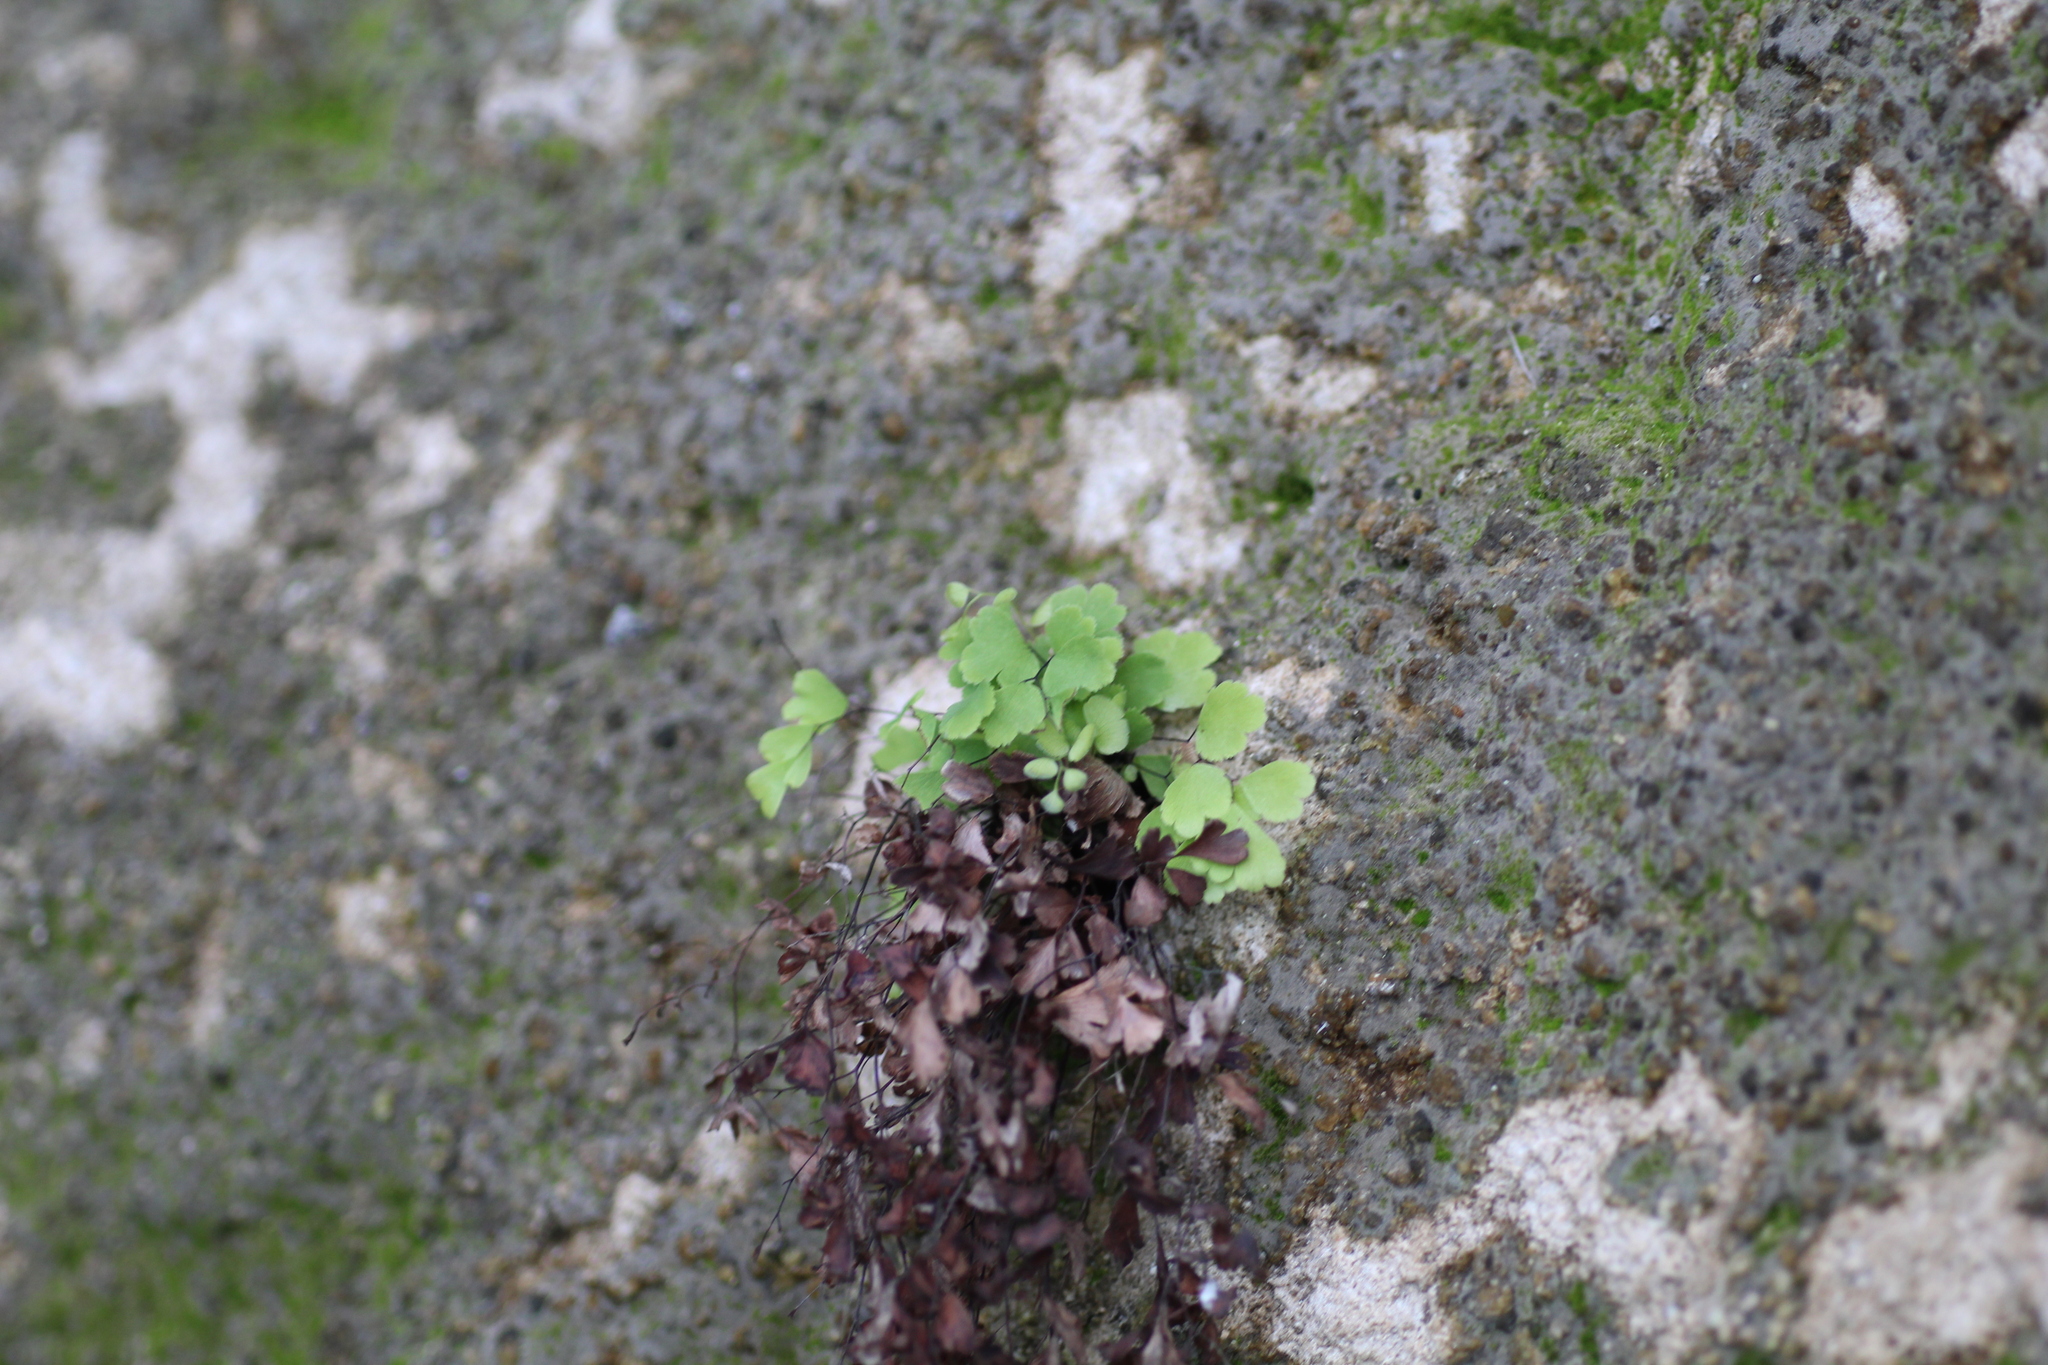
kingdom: Plantae
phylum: Tracheophyta
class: Polypodiopsida
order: Polypodiales
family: Pteridaceae
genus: Adiantum
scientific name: Adiantum aethiopicum
